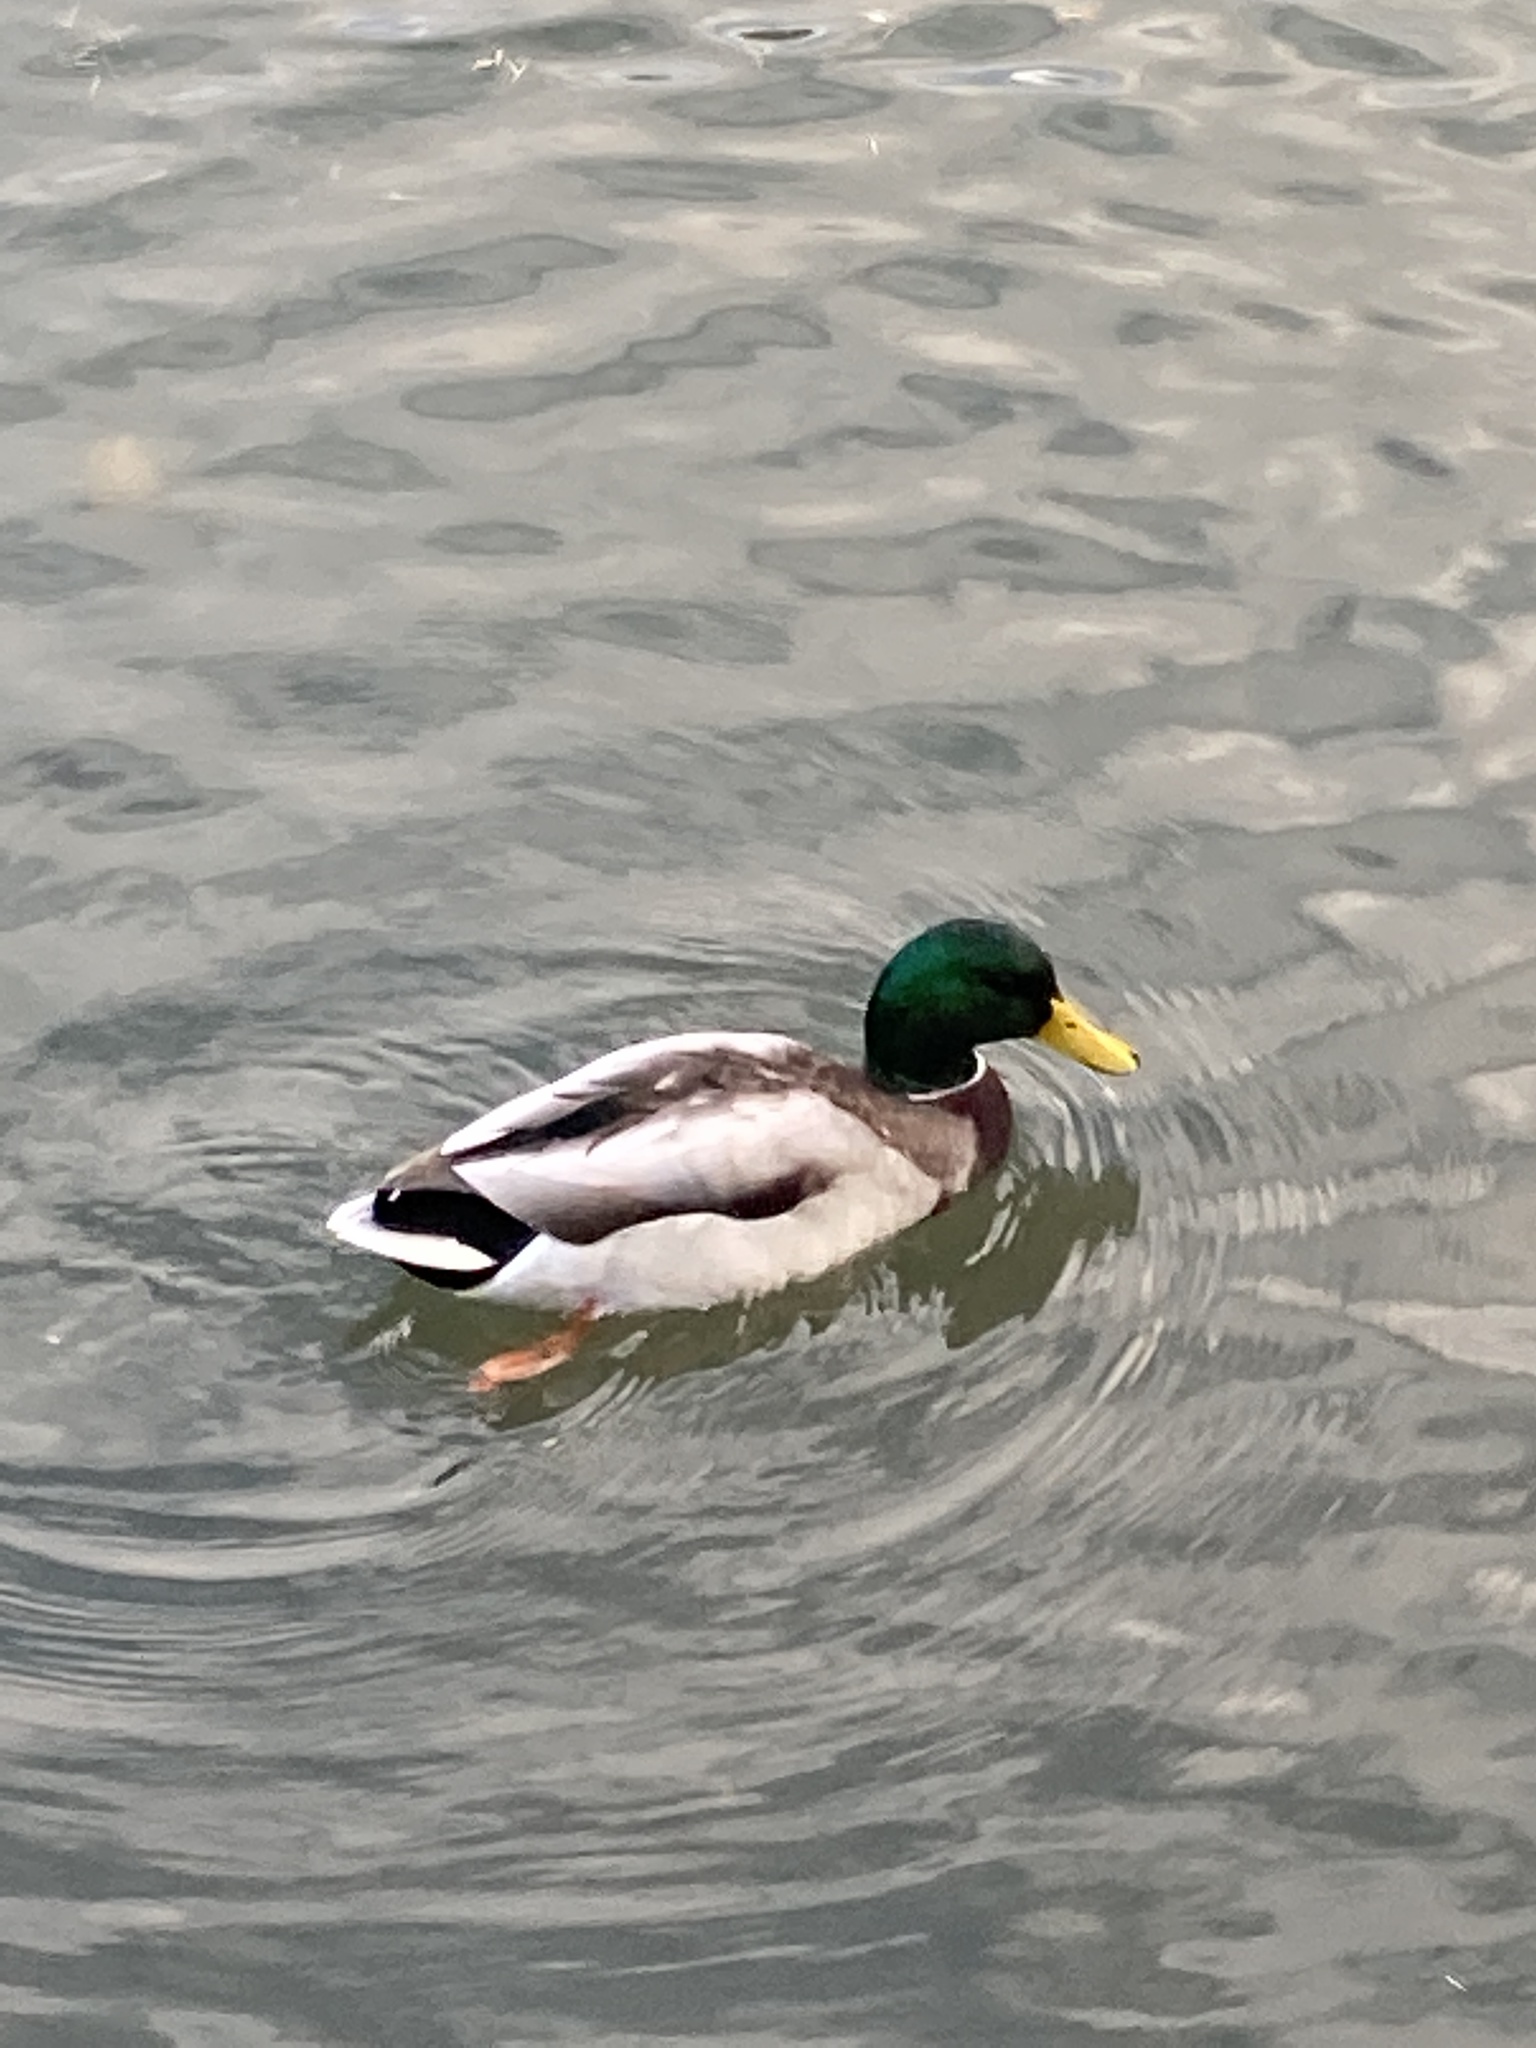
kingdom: Animalia
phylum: Chordata
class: Aves
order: Anseriformes
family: Anatidae
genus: Anas
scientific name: Anas platyrhynchos
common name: Mallard
